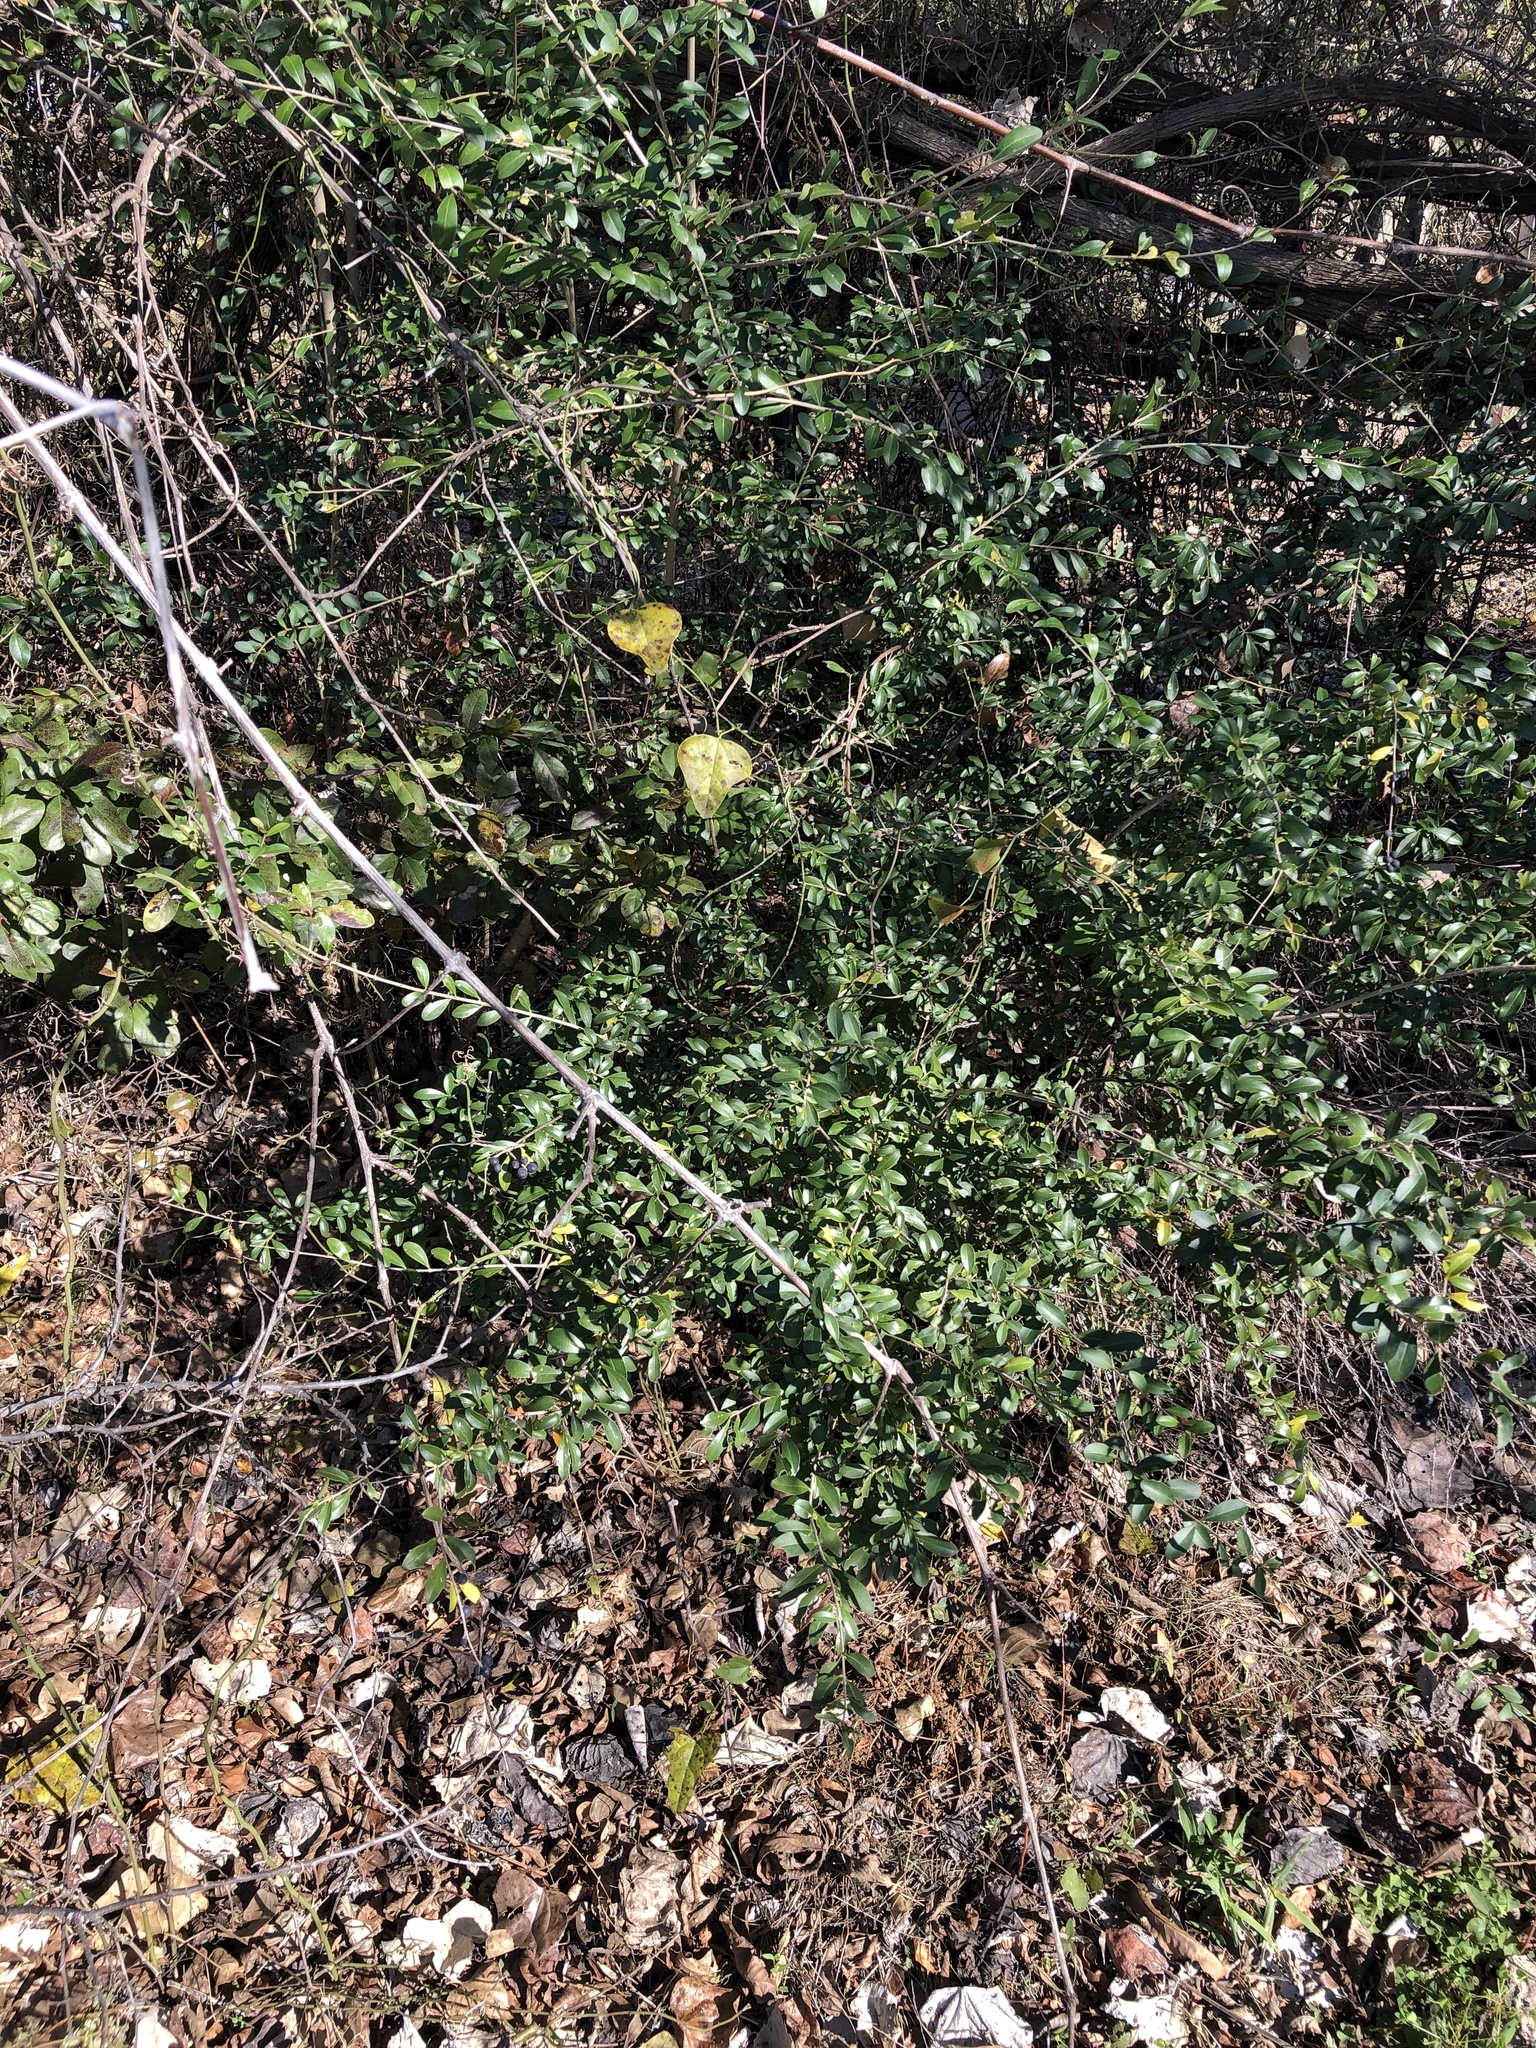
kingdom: Plantae
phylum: Tracheophyta
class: Magnoliopsida
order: Lamiales
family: Oleaceae
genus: Ligustrum
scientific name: Ligustrum quihoui
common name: Waxyleaf privet
